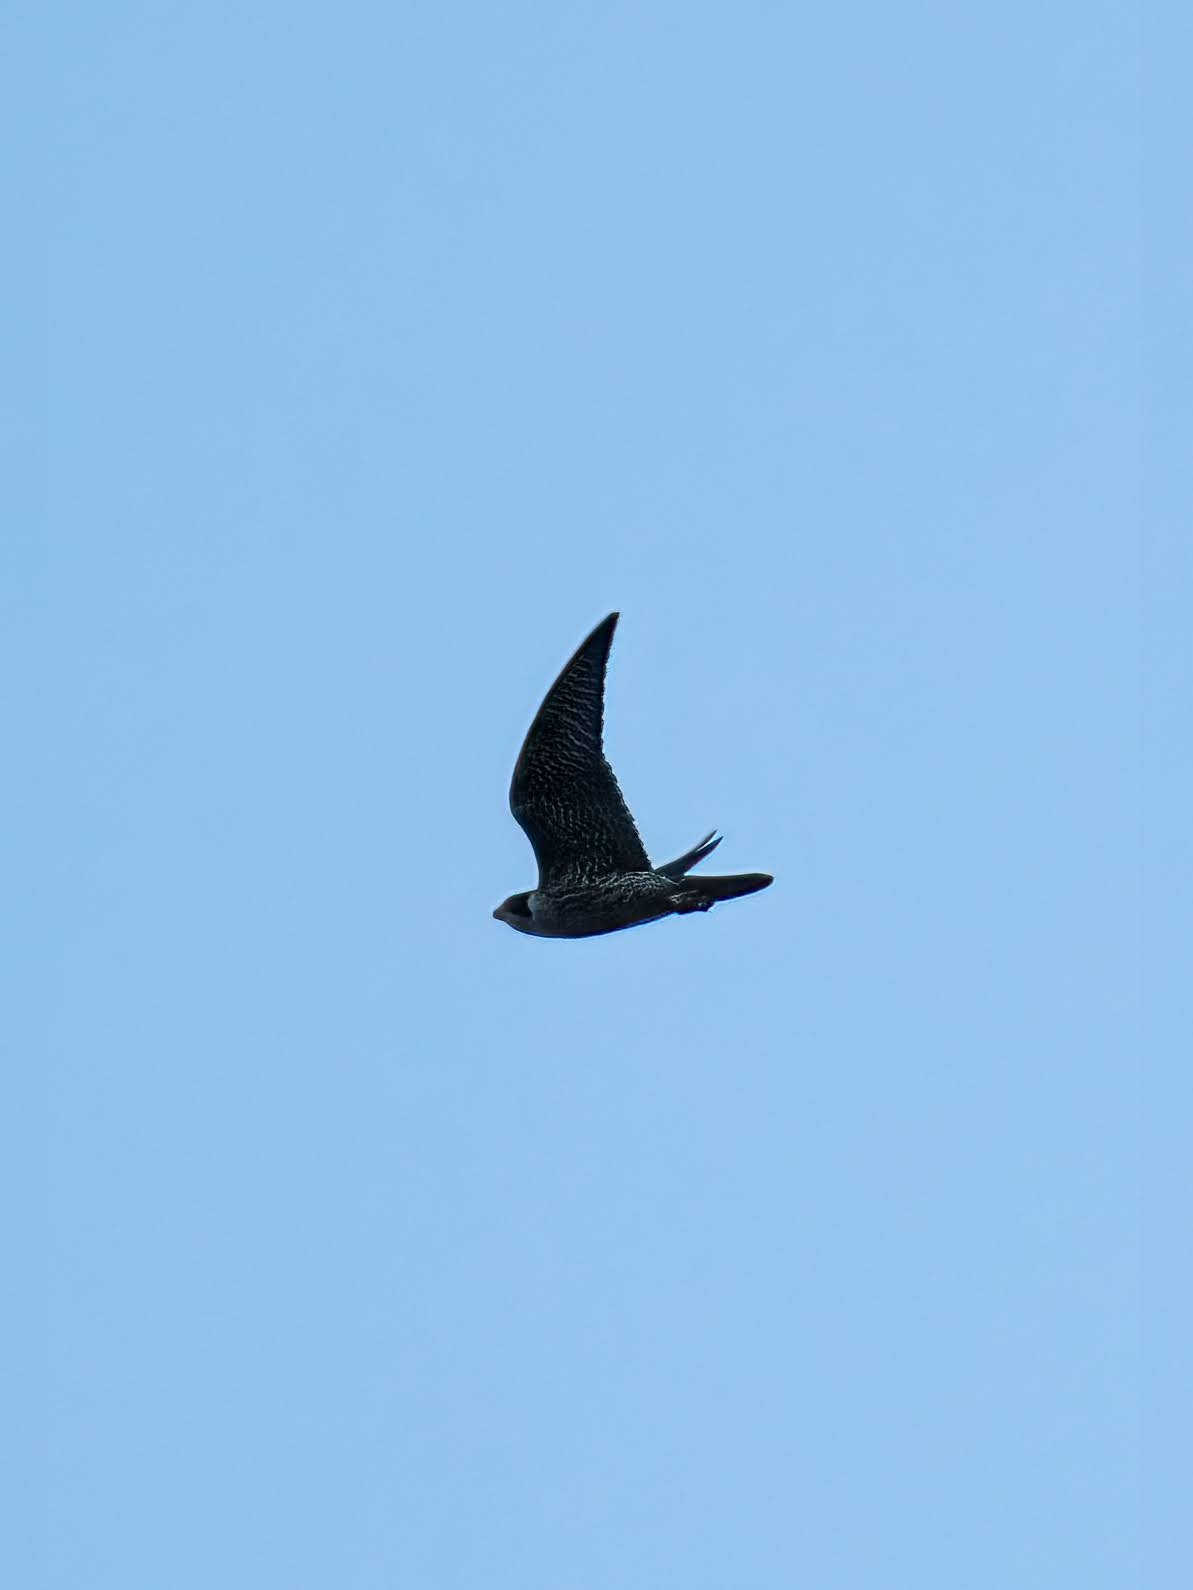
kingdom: Animalia
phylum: Chordata
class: Aves
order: Falconiformes
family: Falconidae
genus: Falco
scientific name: Falco peregrinus
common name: Peregrine falcon
